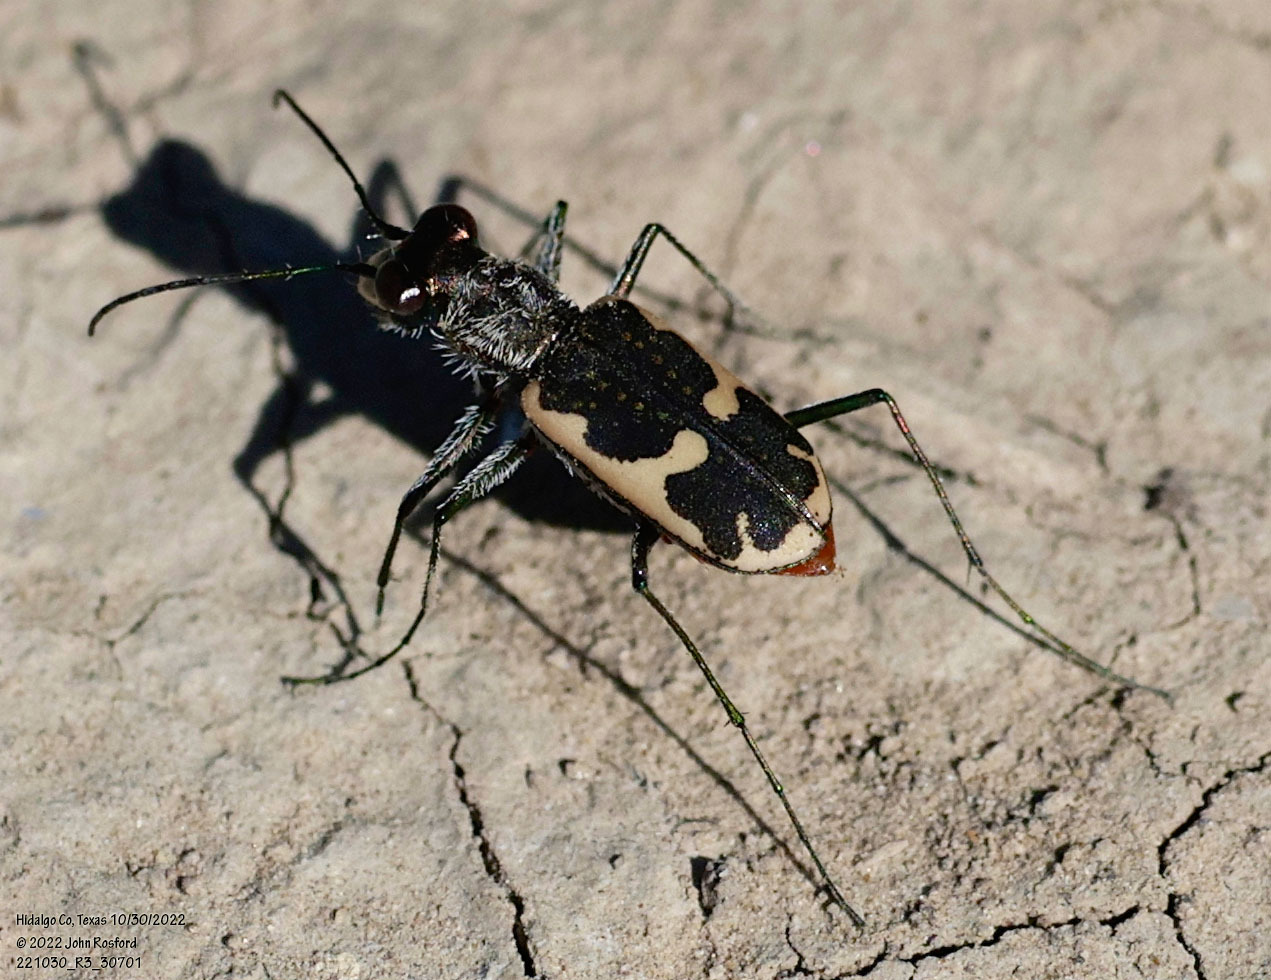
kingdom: Animalia
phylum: Arthropoda
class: Insecta
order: Coleoptera
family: Carabidae
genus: Cicindela
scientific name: Cicindela schauppii
